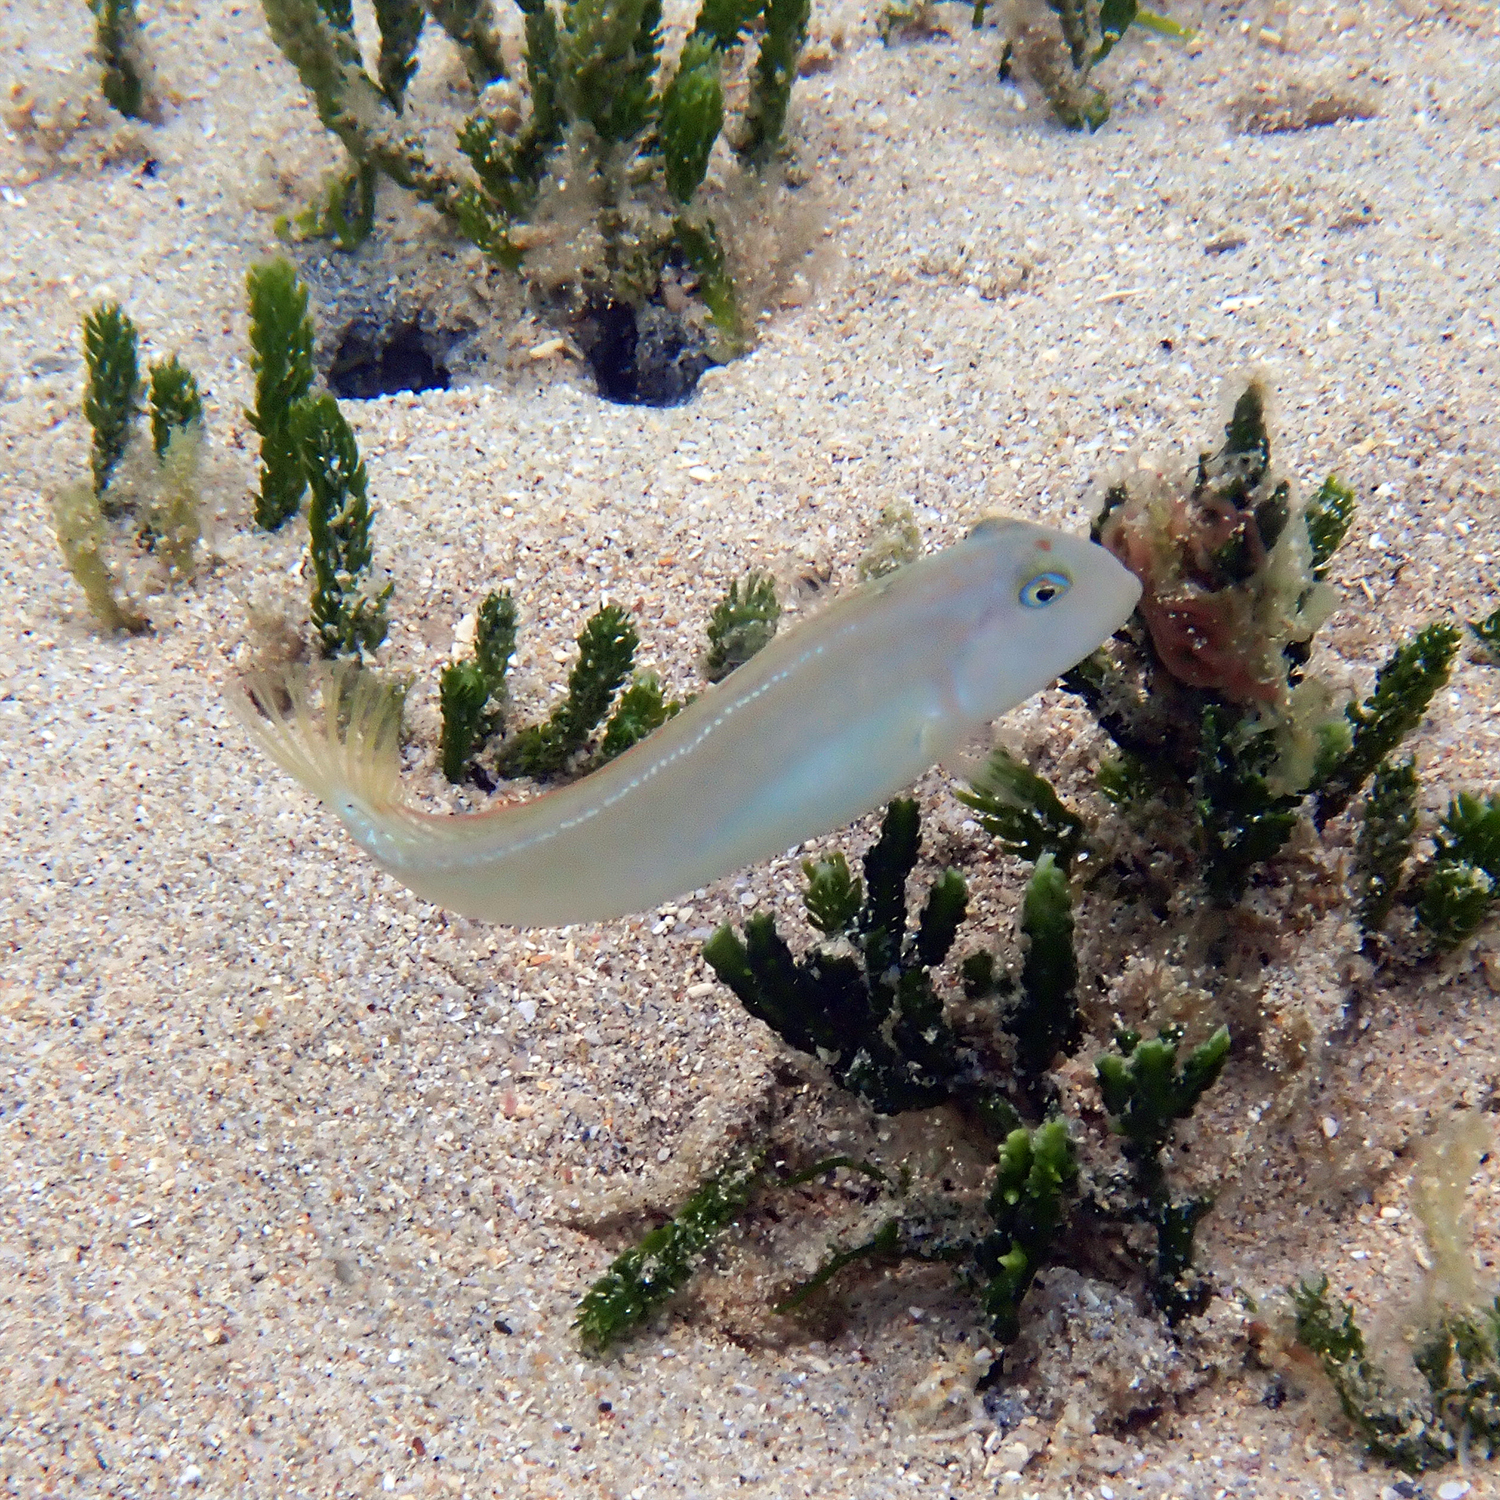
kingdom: Animalia
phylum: Chordata
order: Perciformes
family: Labridae
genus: Cymolutes
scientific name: Cymolutes praetextatus
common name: Knife razorfish
